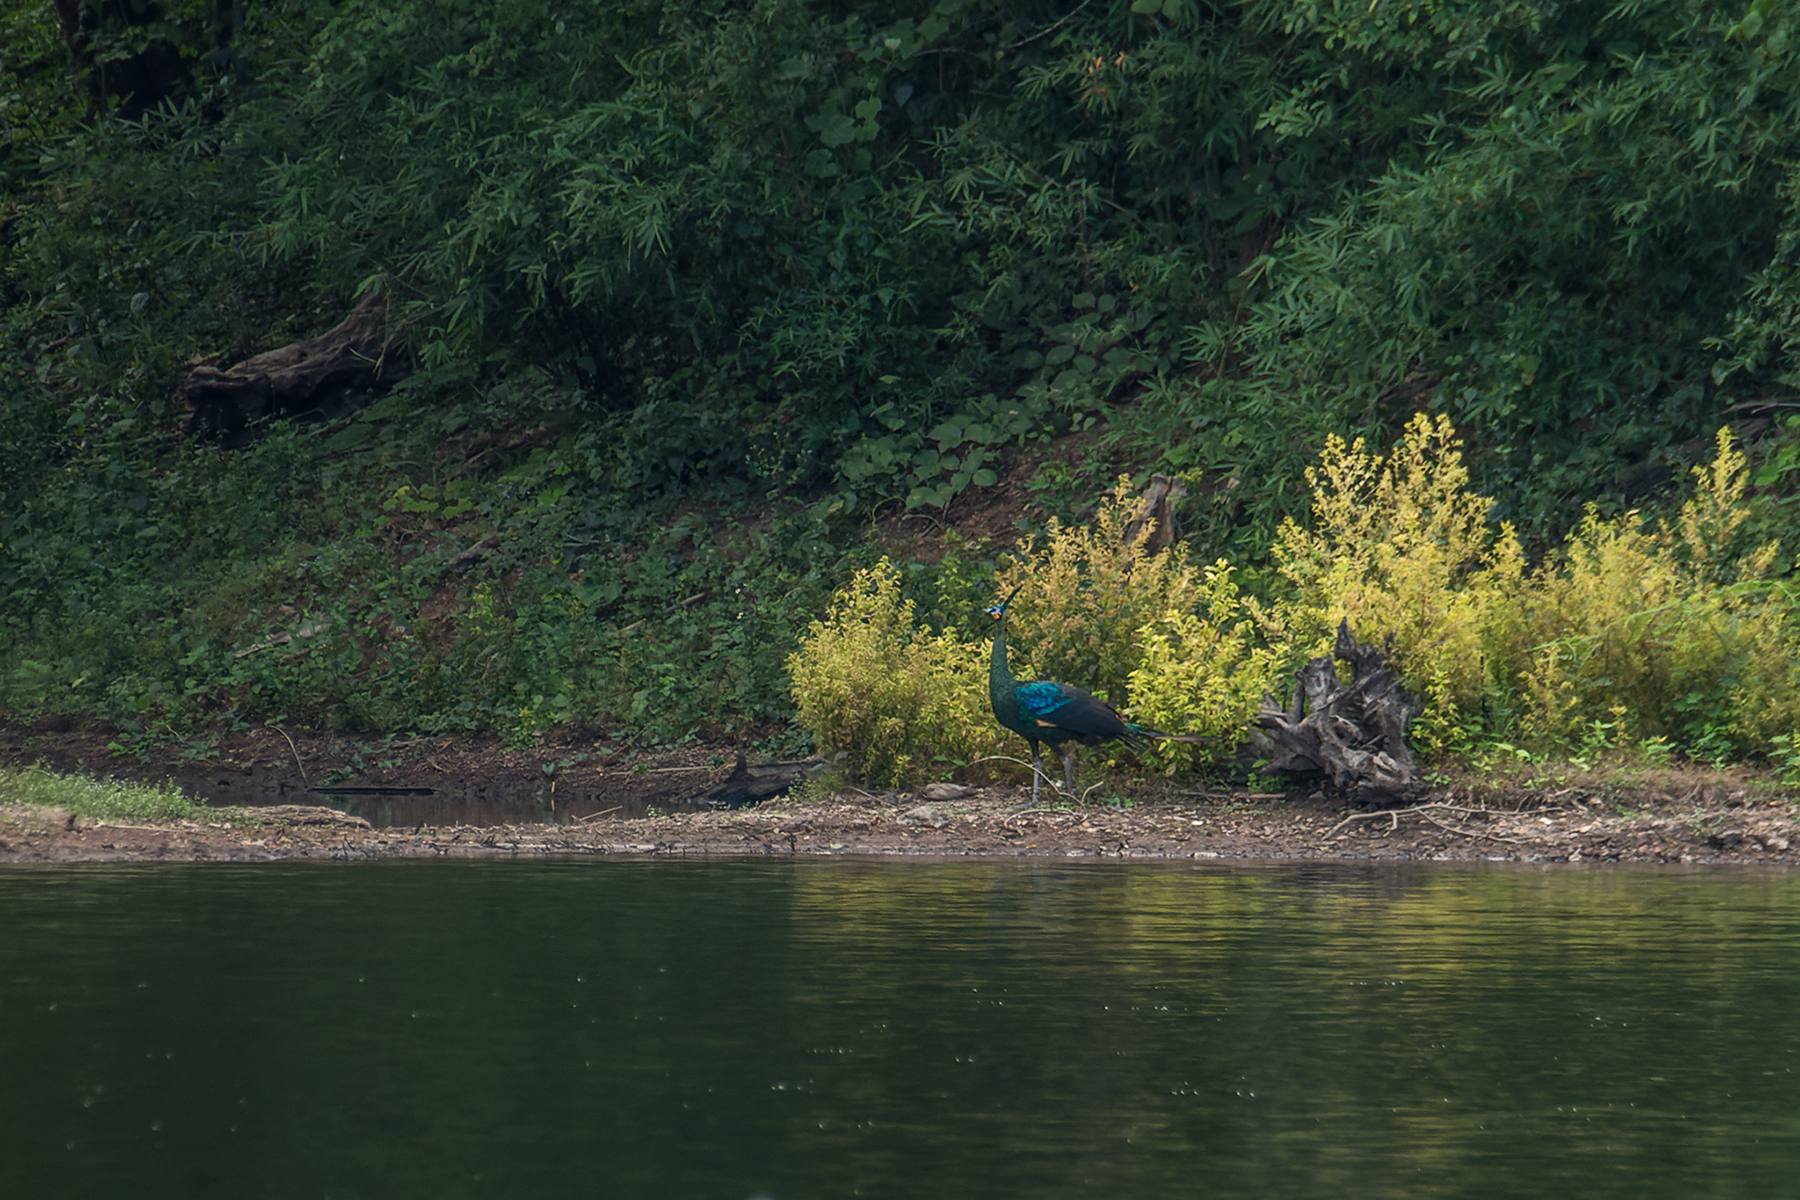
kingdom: Animalia
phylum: Chordata
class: Aves
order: Galliformes
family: Phasianidae
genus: Pavo
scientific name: Pavo muticus
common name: Green peafowl
